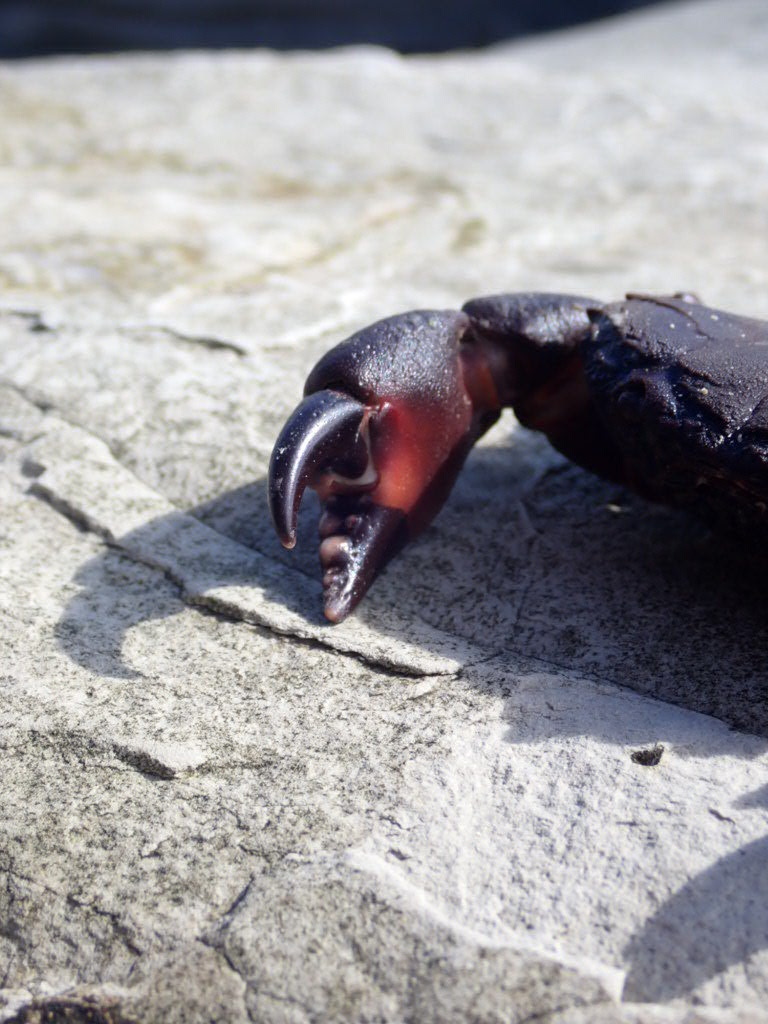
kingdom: Animalia
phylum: Arthropoda
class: Malacostraca
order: Decapoda
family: Oziidae
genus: Ozius
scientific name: Ozius deplanatus
